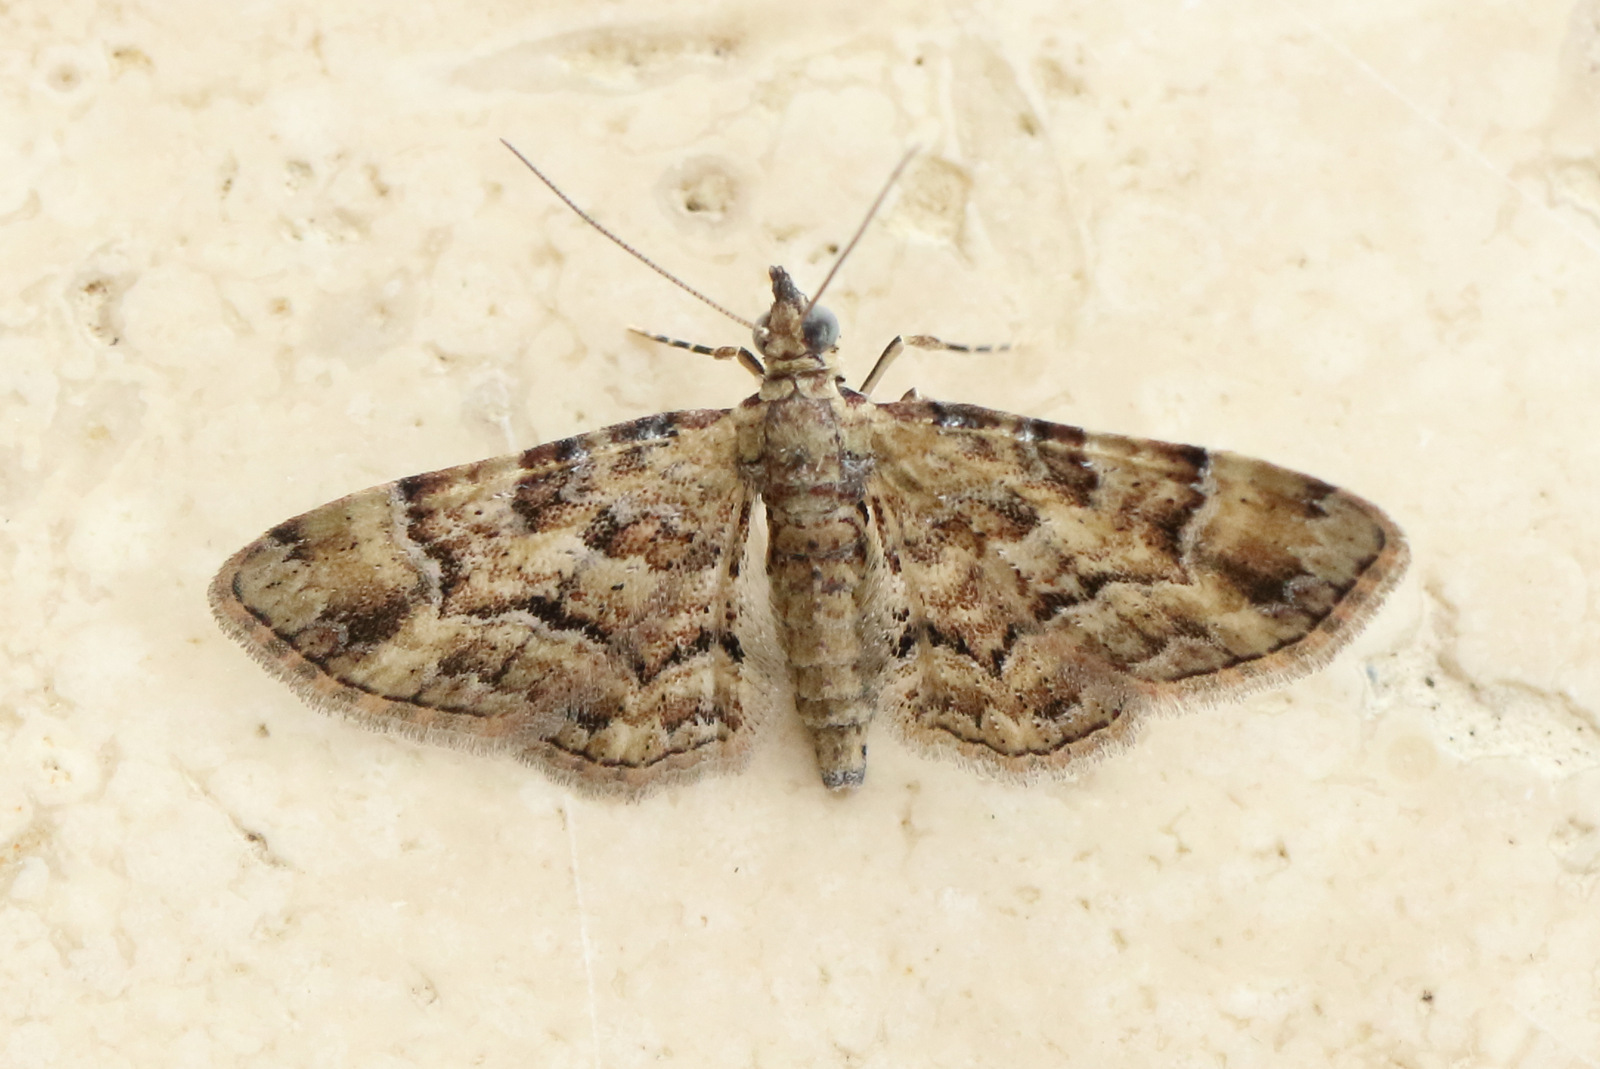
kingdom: Animalia
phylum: Arthropoda
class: Insecta
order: Lepidoptera
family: Geometridae
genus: Gymnoscelis
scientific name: Gymnoscelis lophopus
